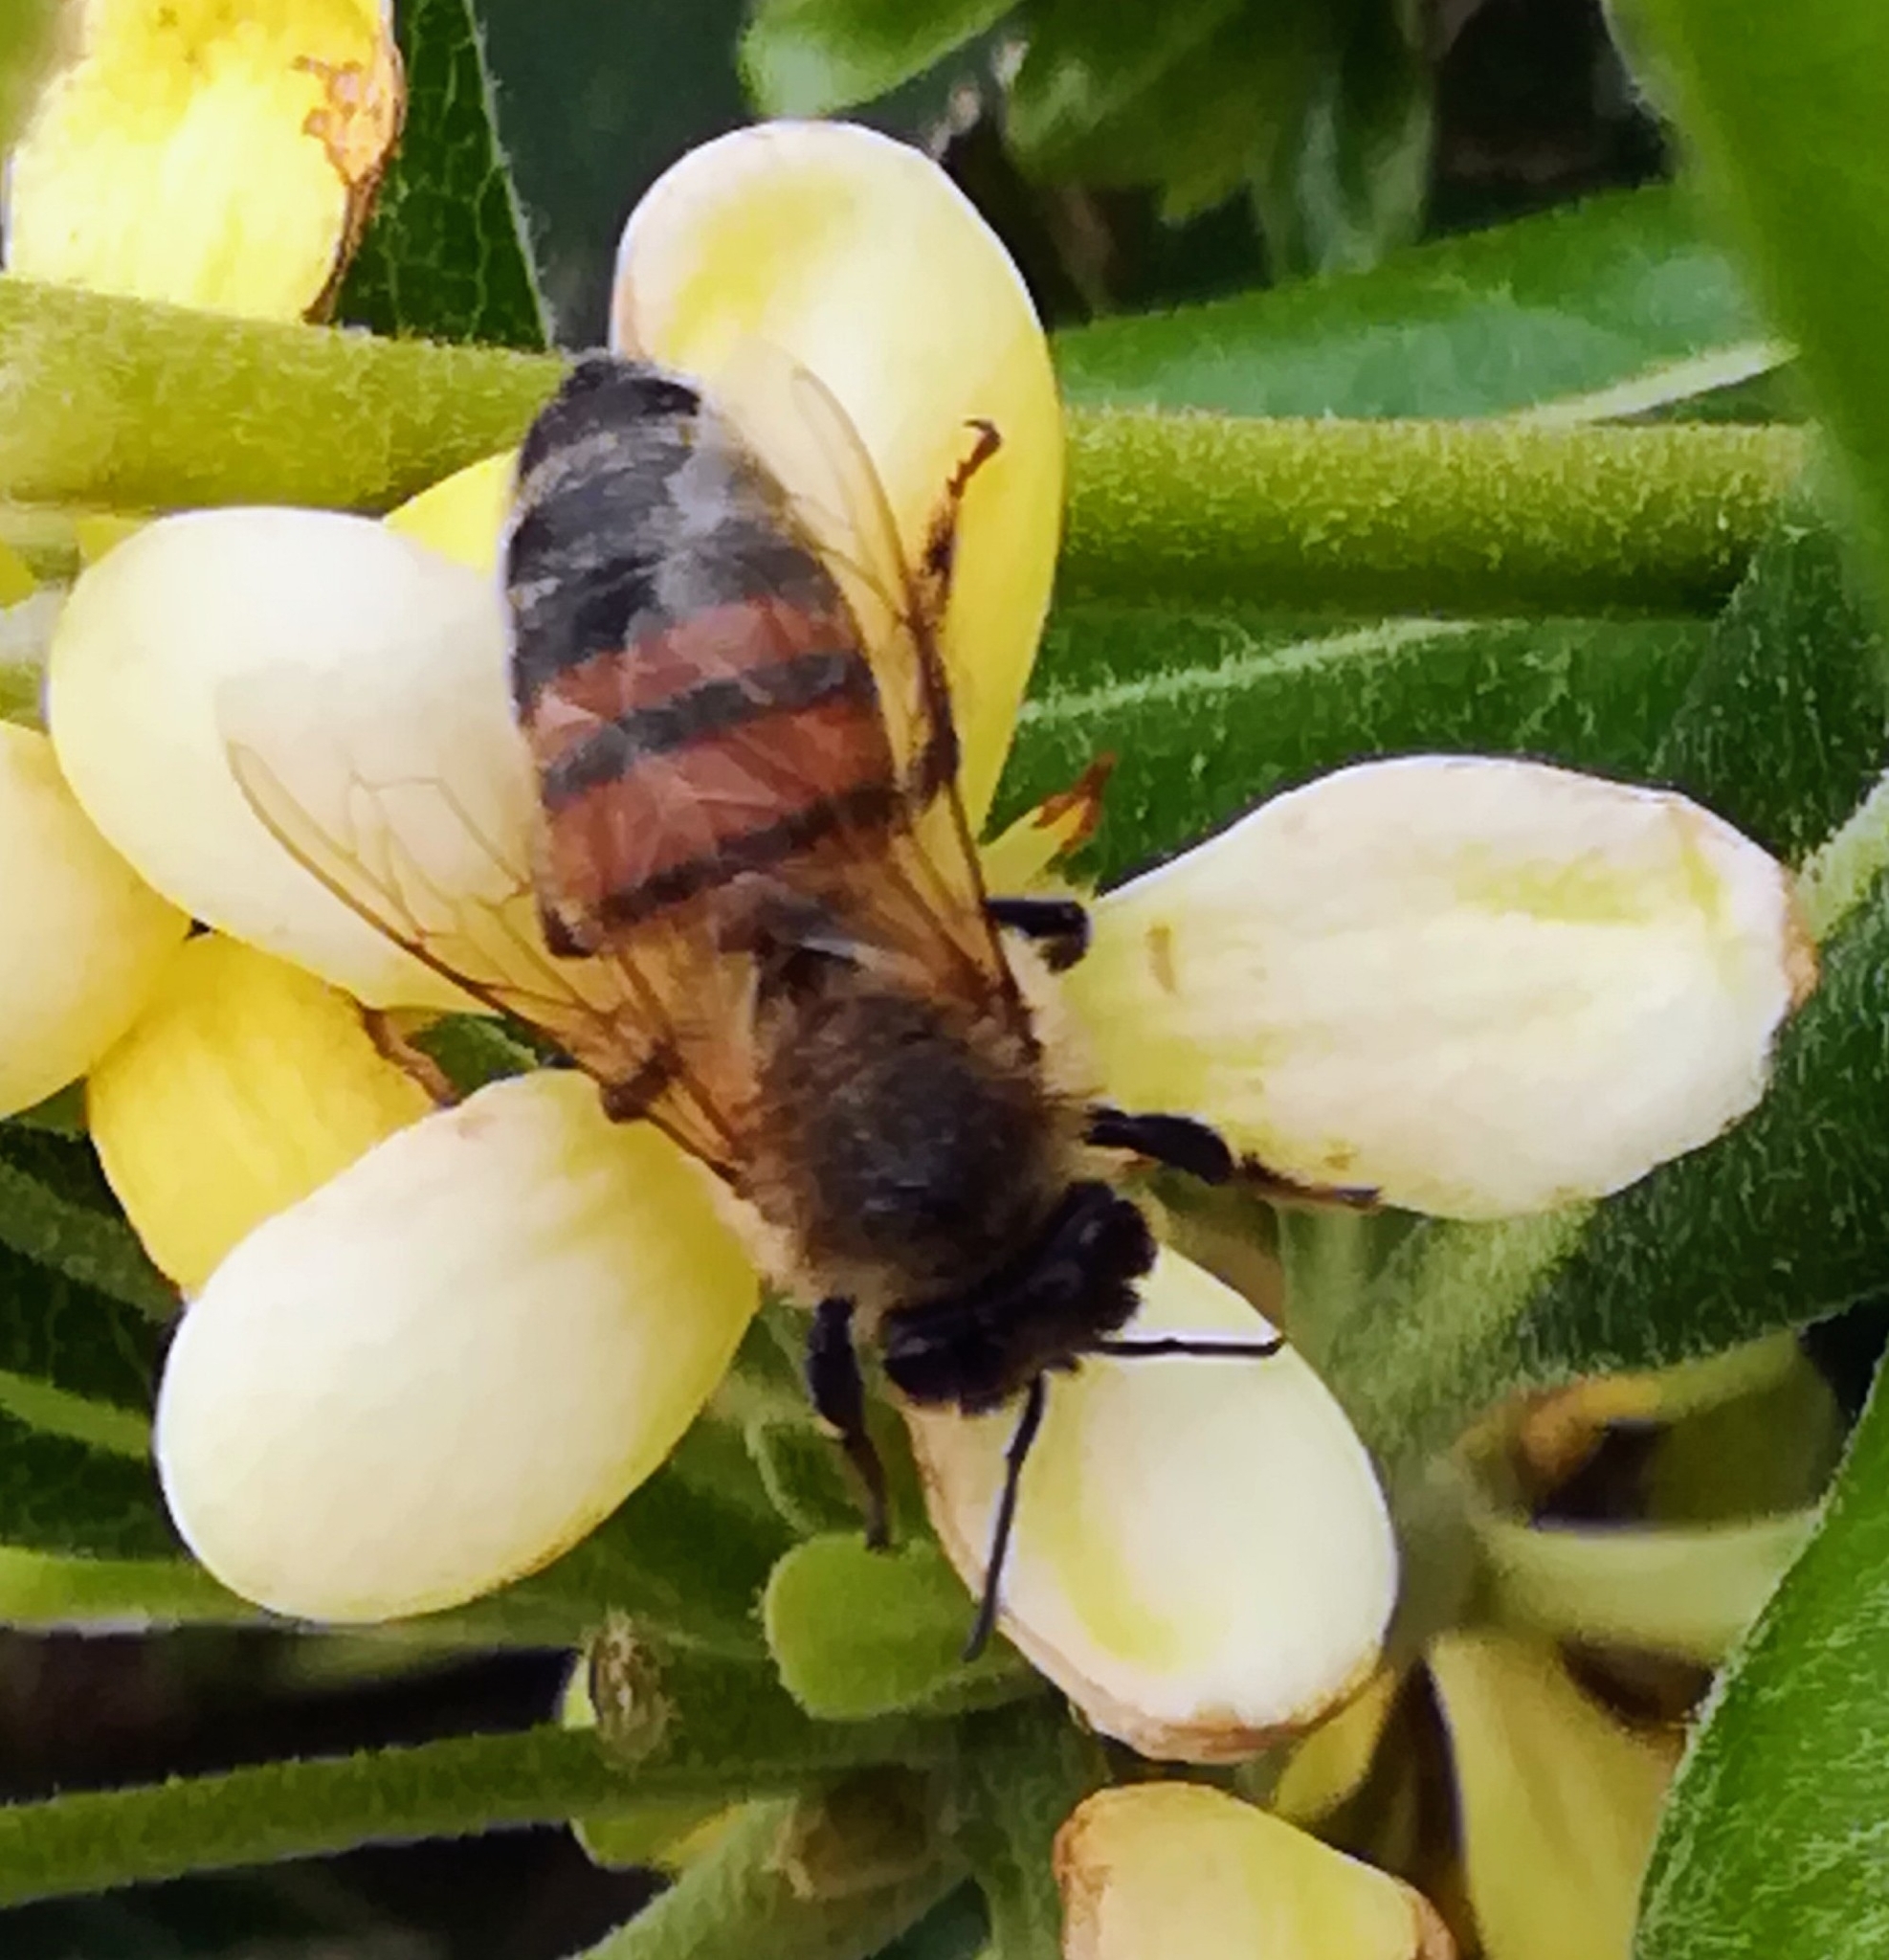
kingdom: Animalia
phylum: Arthropoda
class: Insecta
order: Hymenoptera
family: Apidae
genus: Apis
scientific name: Apis mellifera
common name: Honey bee
